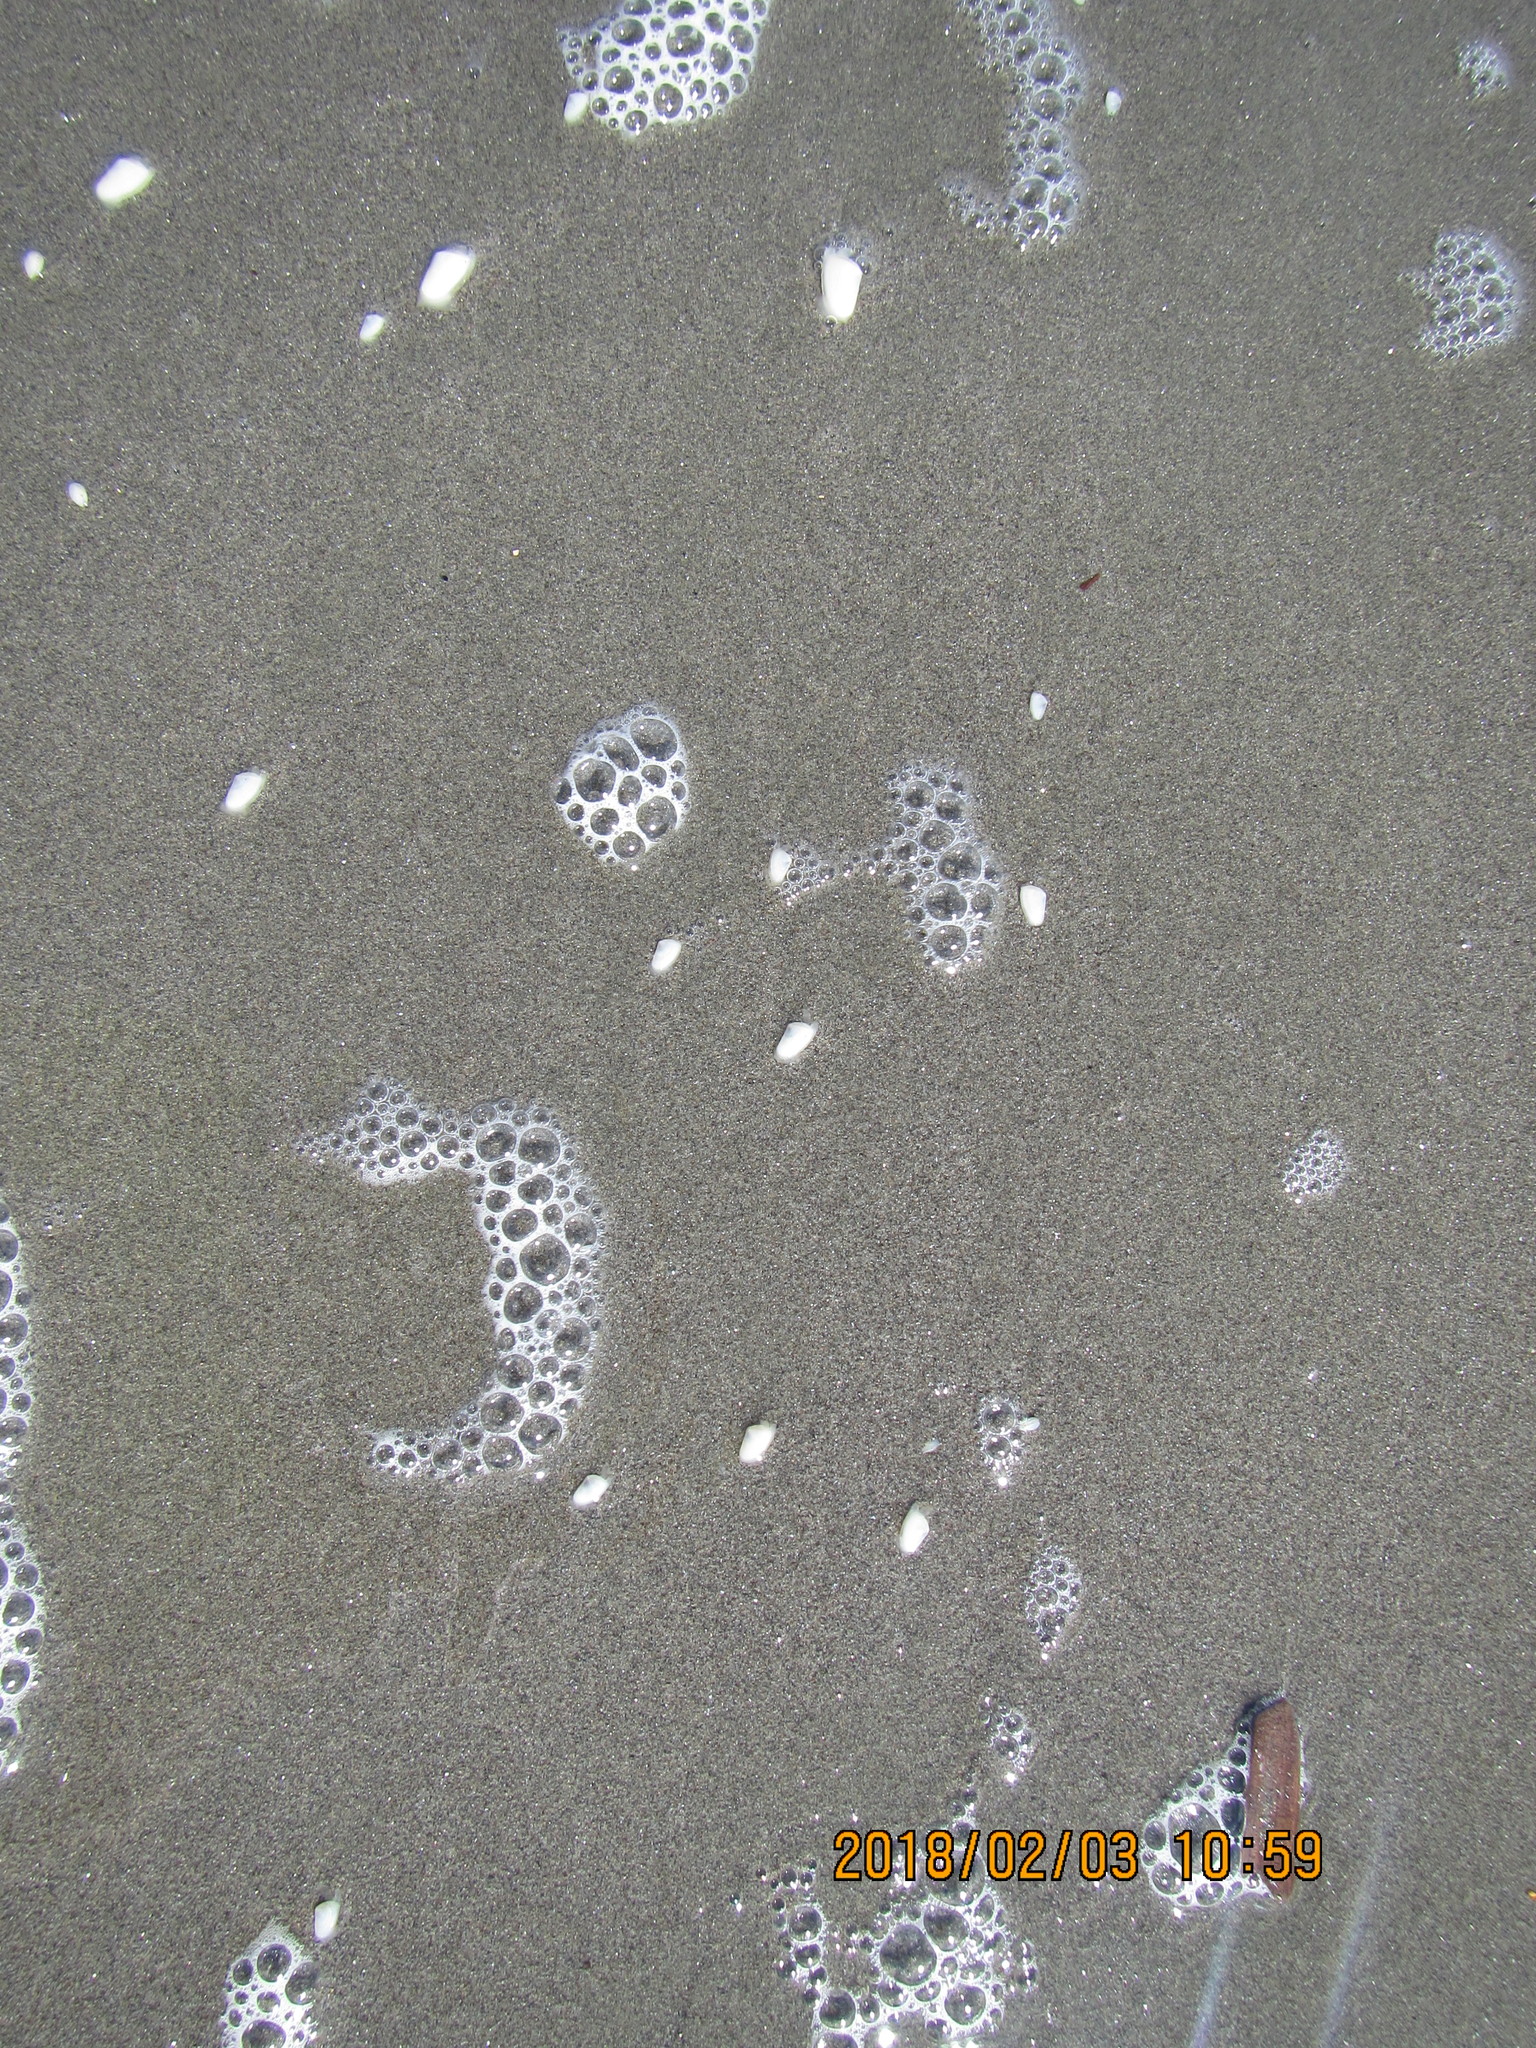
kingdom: Animalia
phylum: Mollusca
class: Bivalvia
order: Venerida
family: Mesodesmatidae
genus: Paphies
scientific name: Paphies subtriangulata
